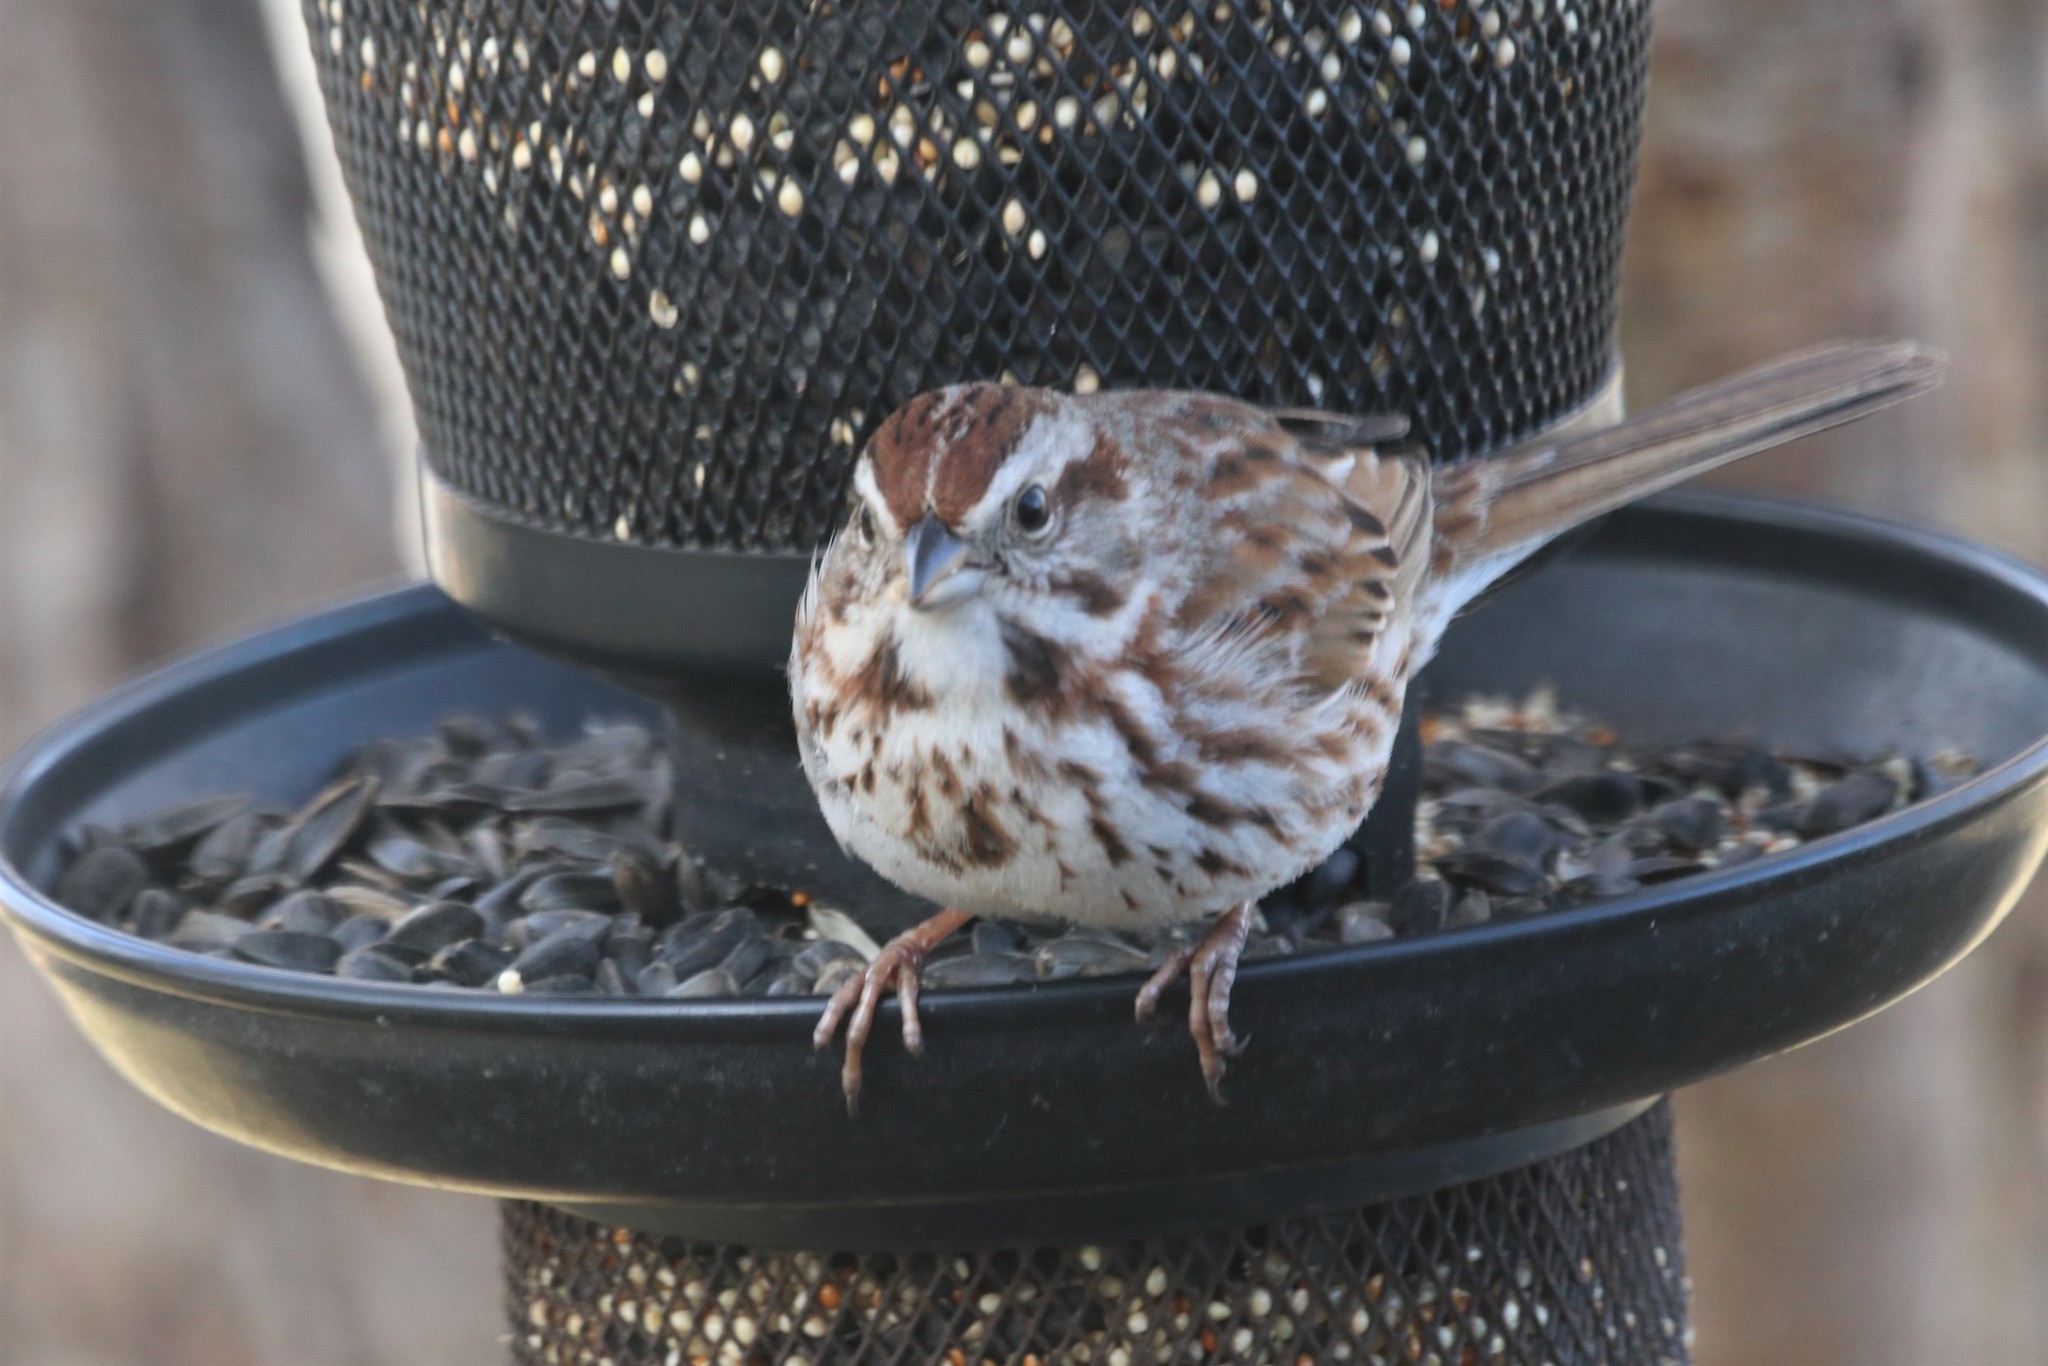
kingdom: Animalia
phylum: Chordata
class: Aves
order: Passeriformes
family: Passerellidae
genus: Melospiza
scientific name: Melospiza melodia
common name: Song sparrow
